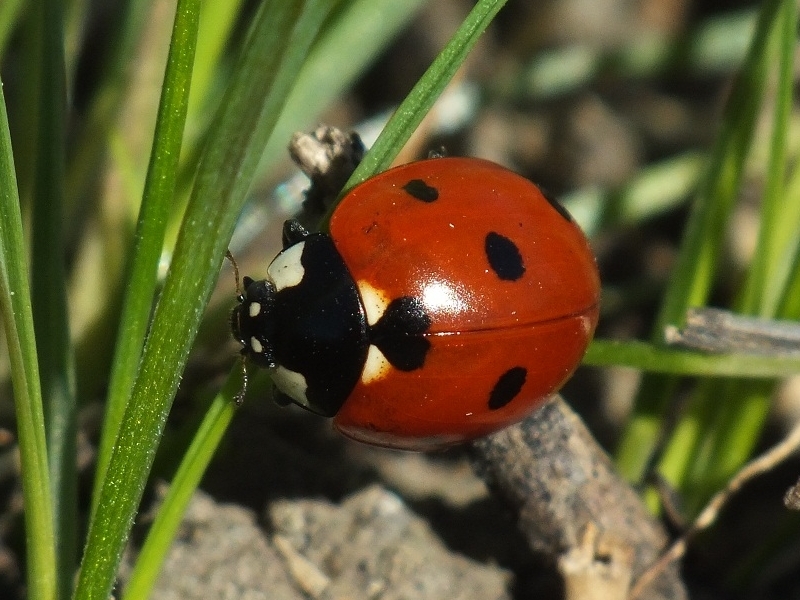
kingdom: Animalia
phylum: Arthropoda
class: Insecta
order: Coleoptera
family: Coccinellidae
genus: Coccinella
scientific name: Coccinella septempunctata
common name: Sevenspotted lady beetle
